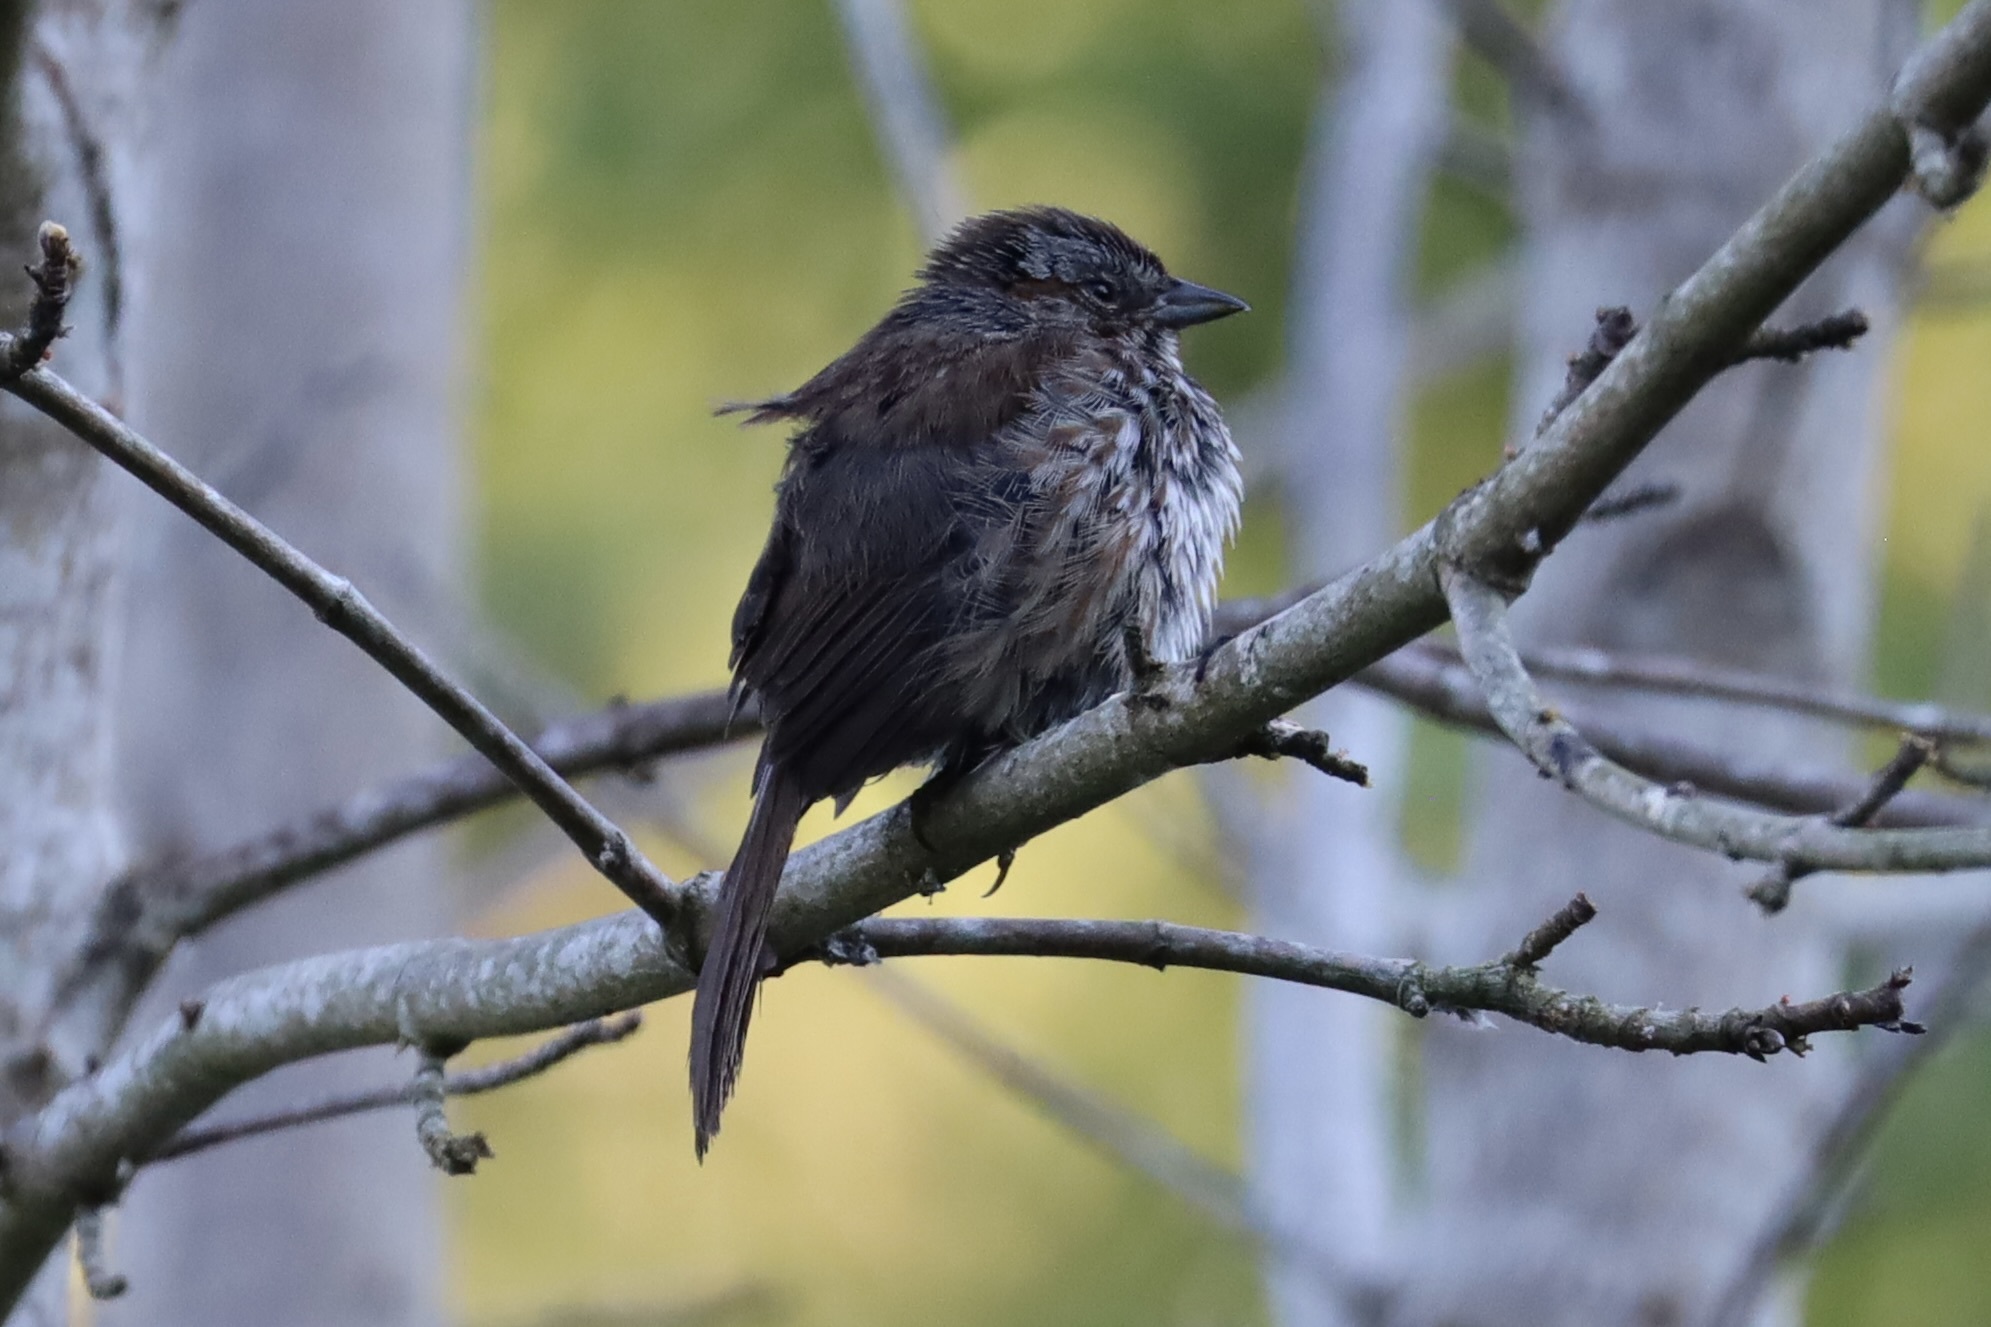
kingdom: Animalia
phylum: Chordata
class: Aves
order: Passeriformes
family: Passerellidae
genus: Melospiza
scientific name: Melospiza melodia
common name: Song sparrow
